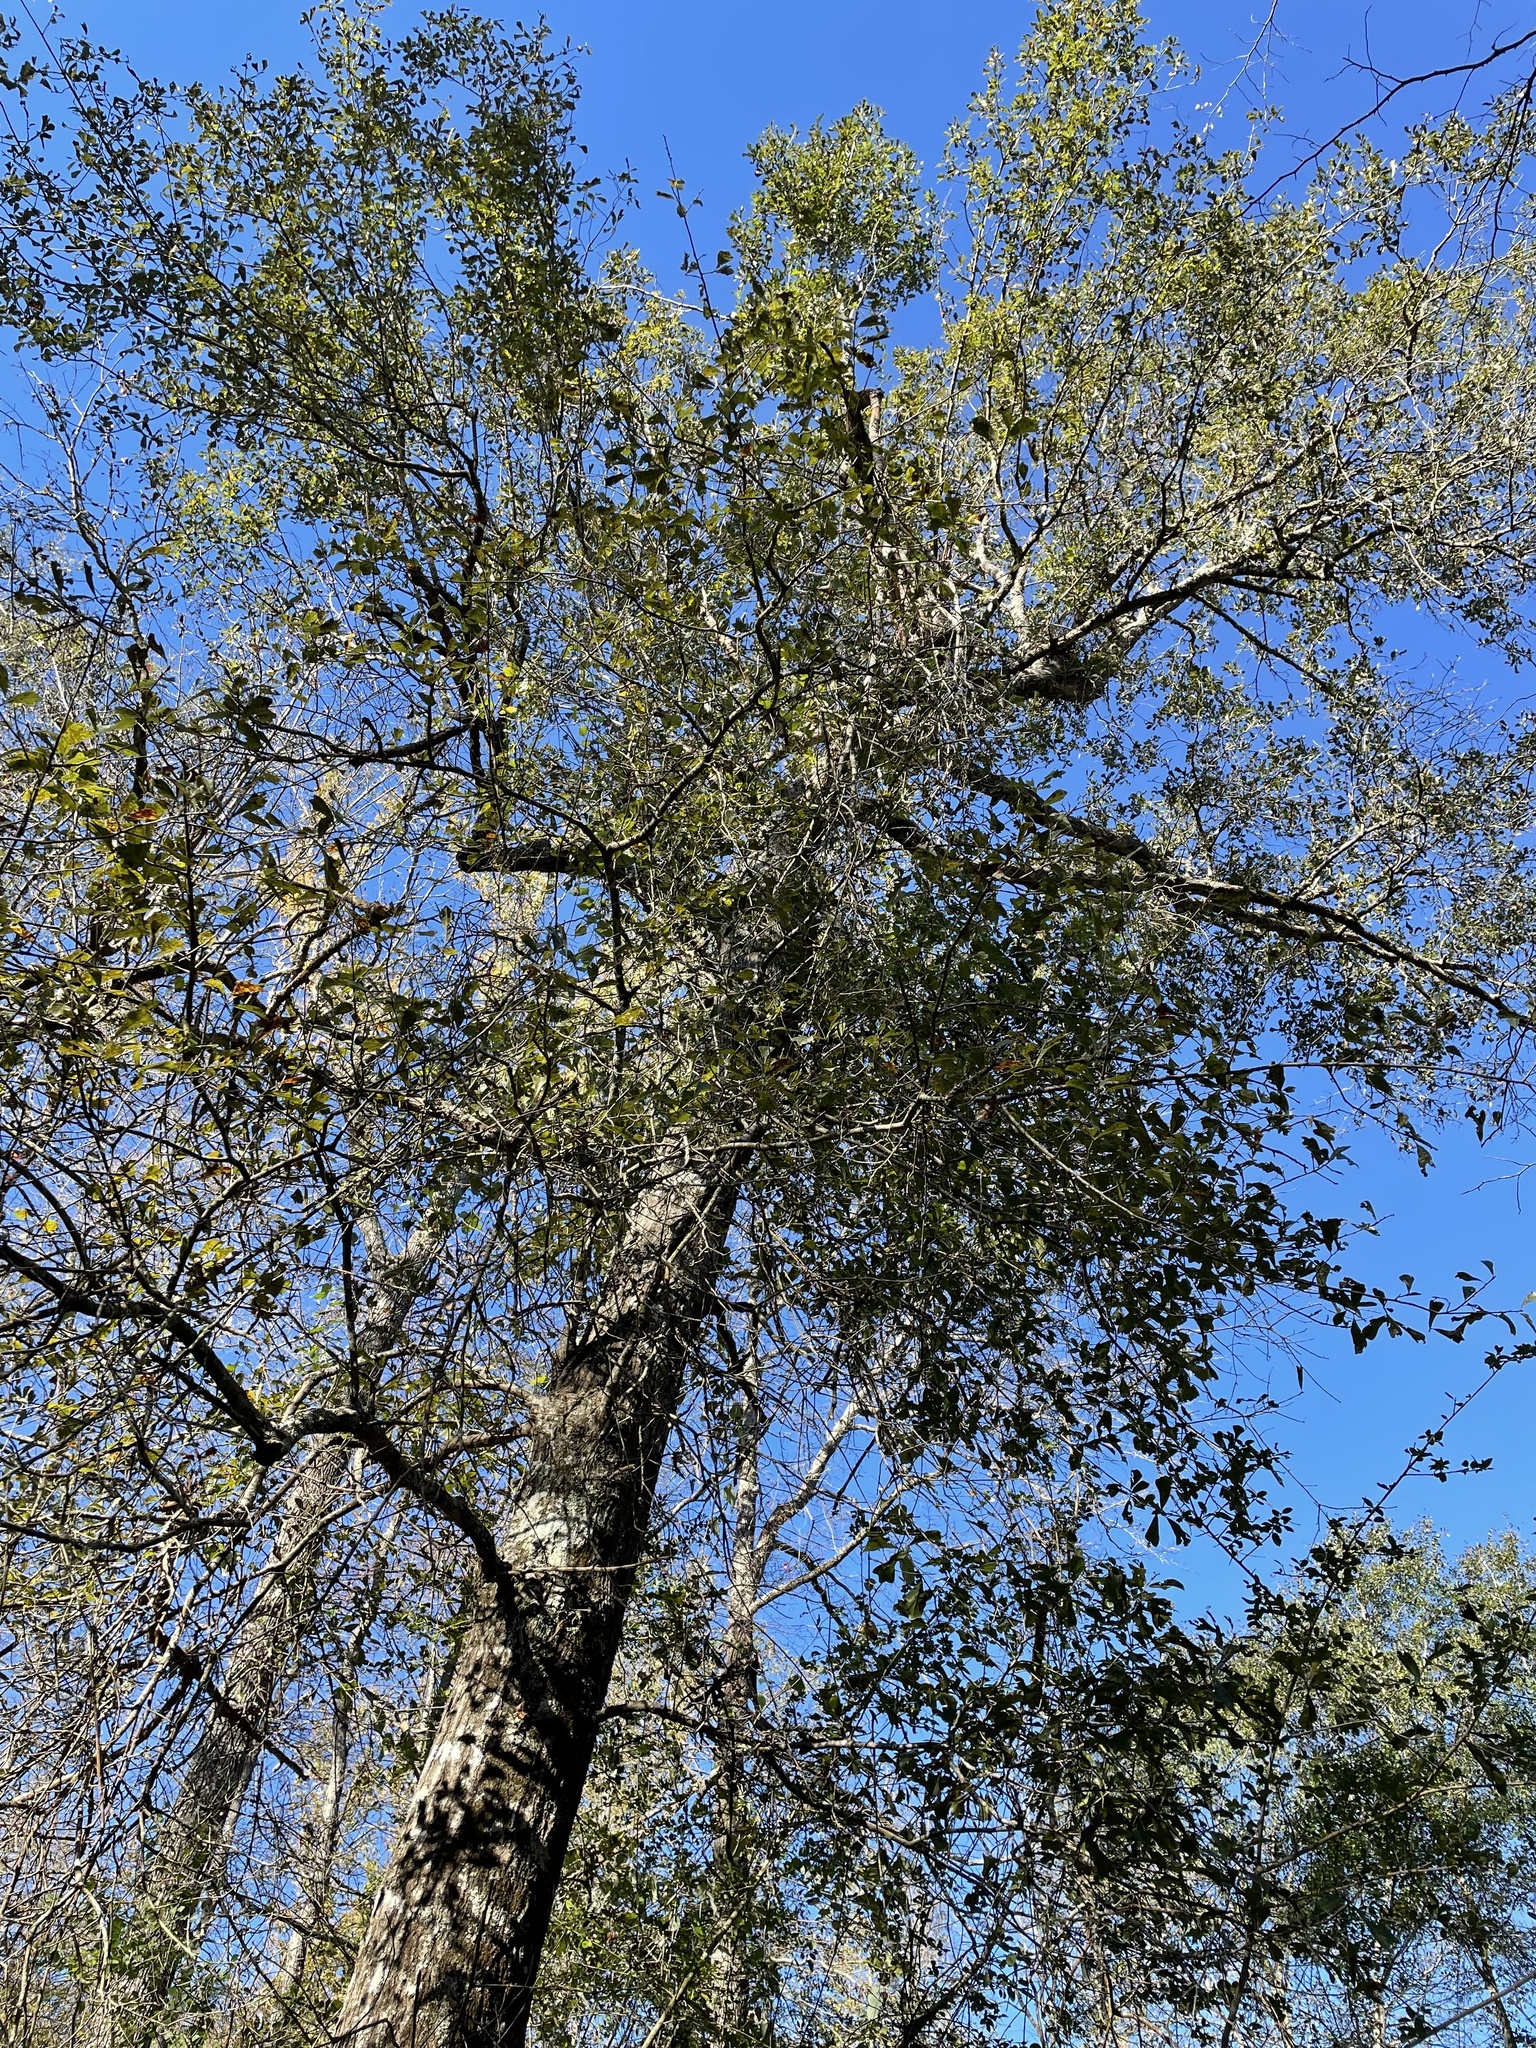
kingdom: Plantae
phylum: Tracheophyta
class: Magnoliopsida
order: Fagales
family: Fagaceae
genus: Quercus
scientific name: Quercus nigra
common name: Water oak
